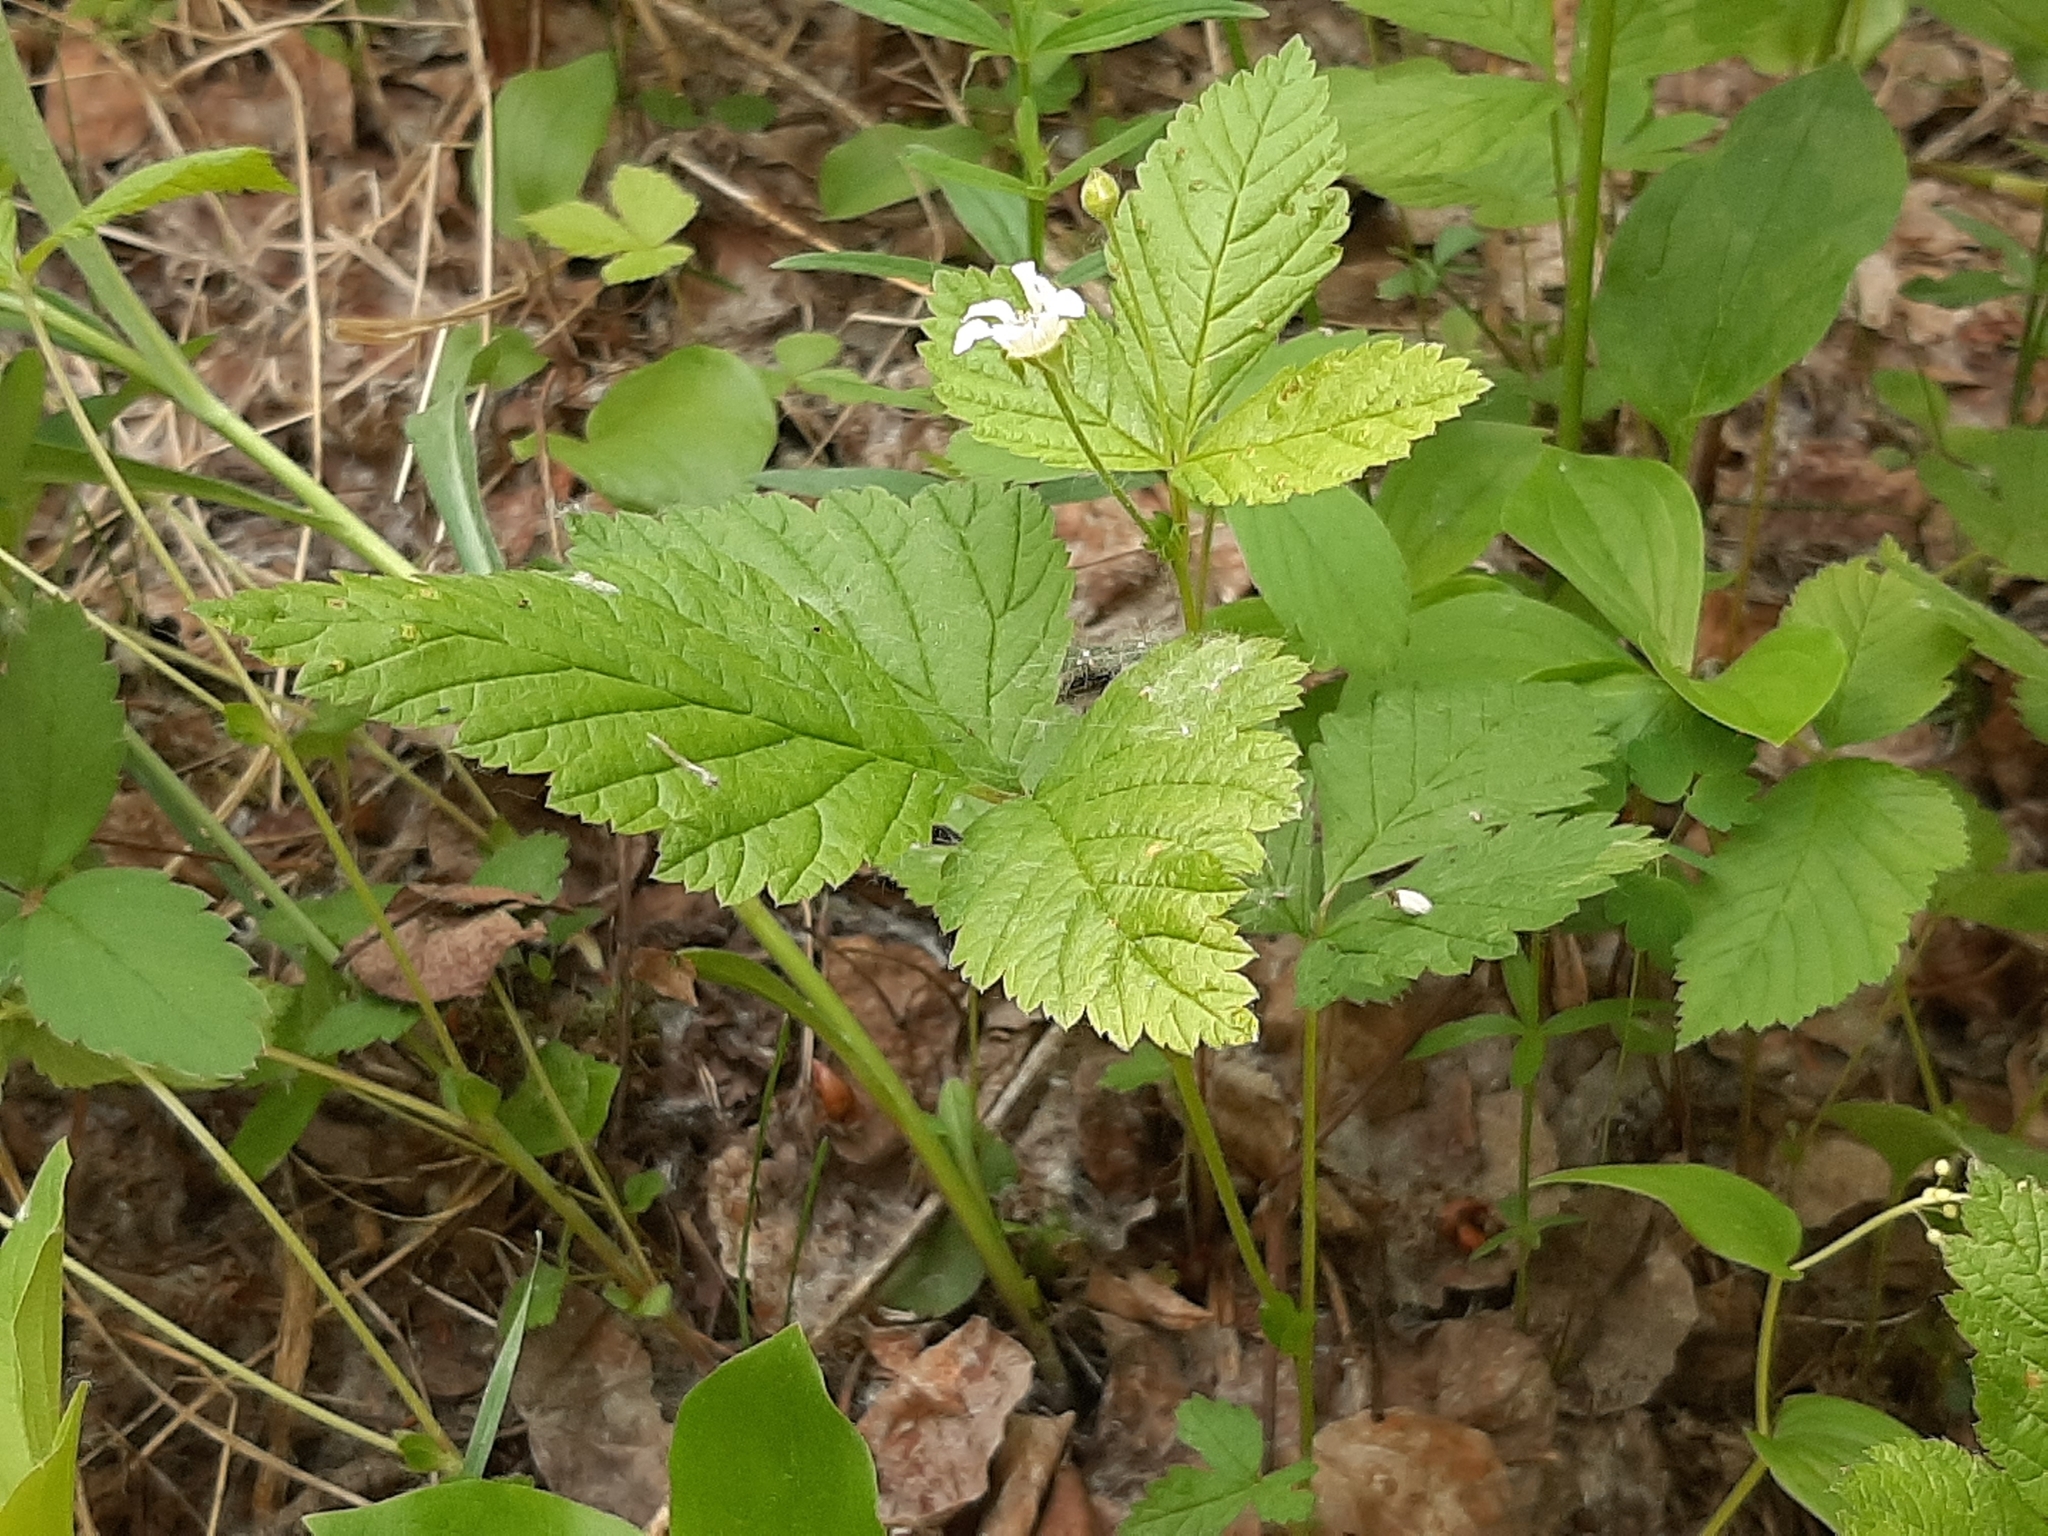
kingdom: Plantae
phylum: Tracheophyta
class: Magnoliopsida
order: Rosales
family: Rosaceae
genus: Rubus
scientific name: Rubus pubescens
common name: Dwarf raspberry
